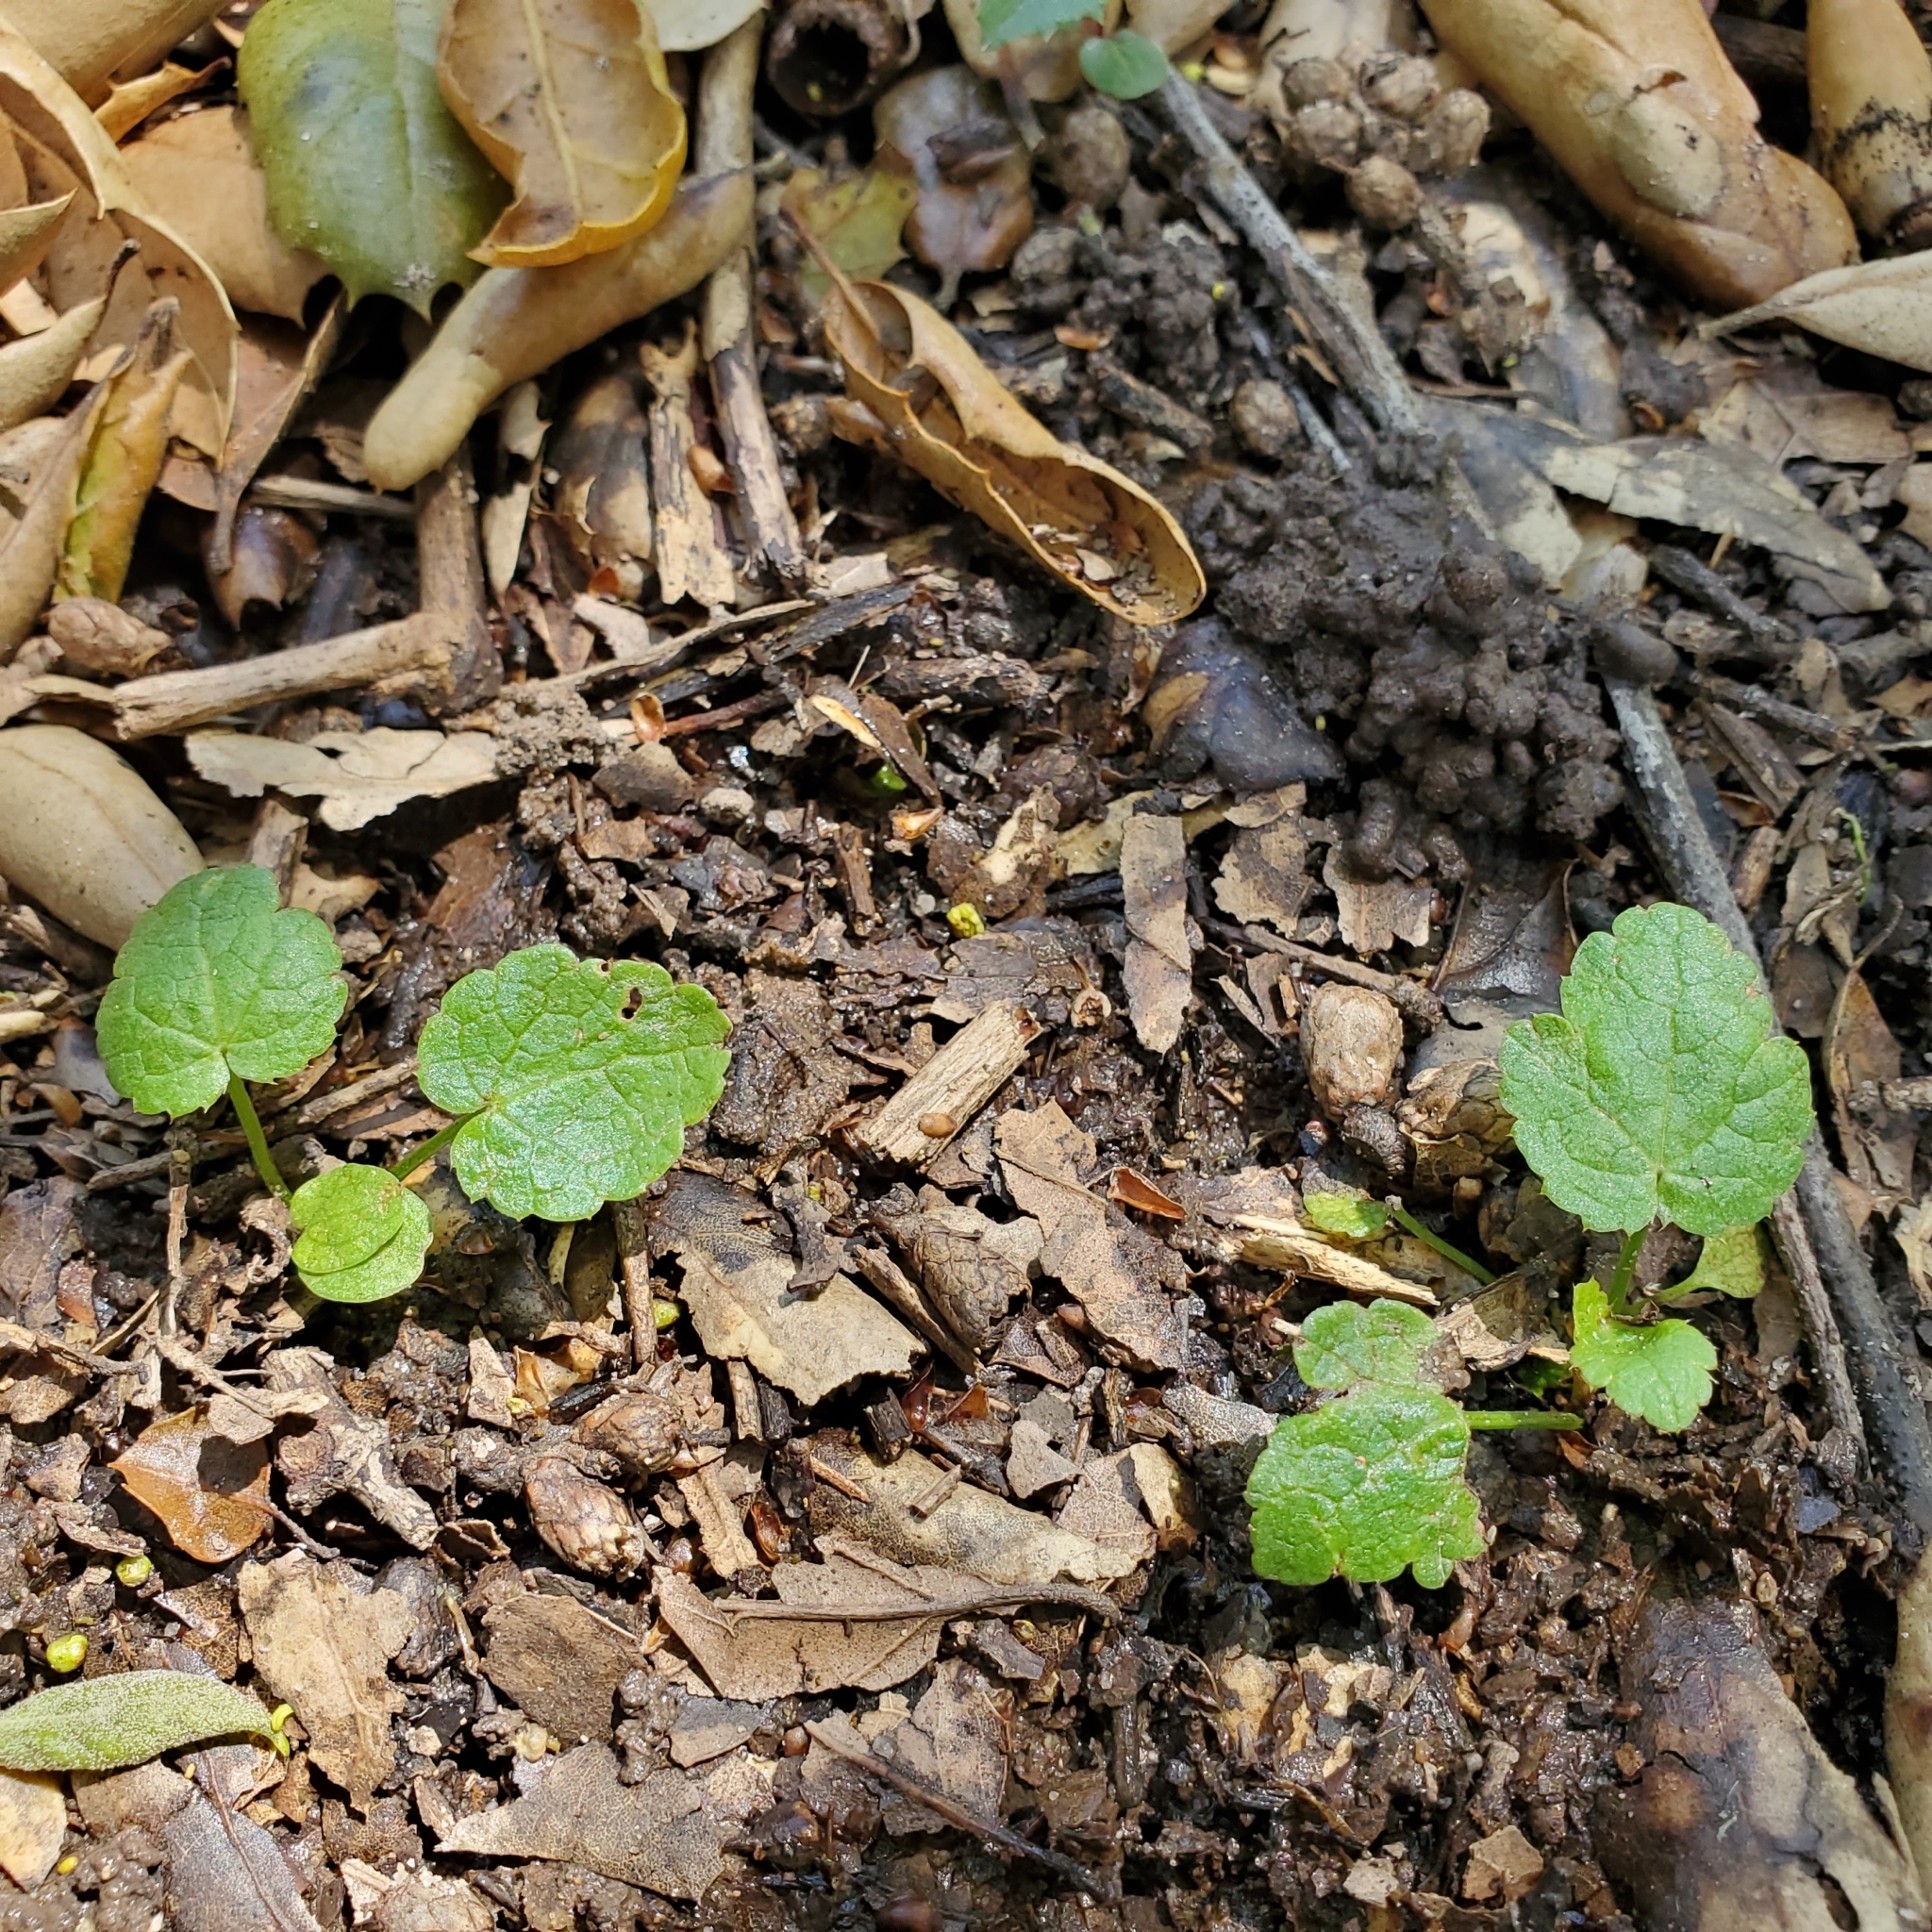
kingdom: Plantae
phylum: Tracheophyta
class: Magnoliopsida
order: Apiales
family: Apiaceae
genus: Sanicula
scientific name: Sanicula crassicaulis
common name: Western snakeroot
